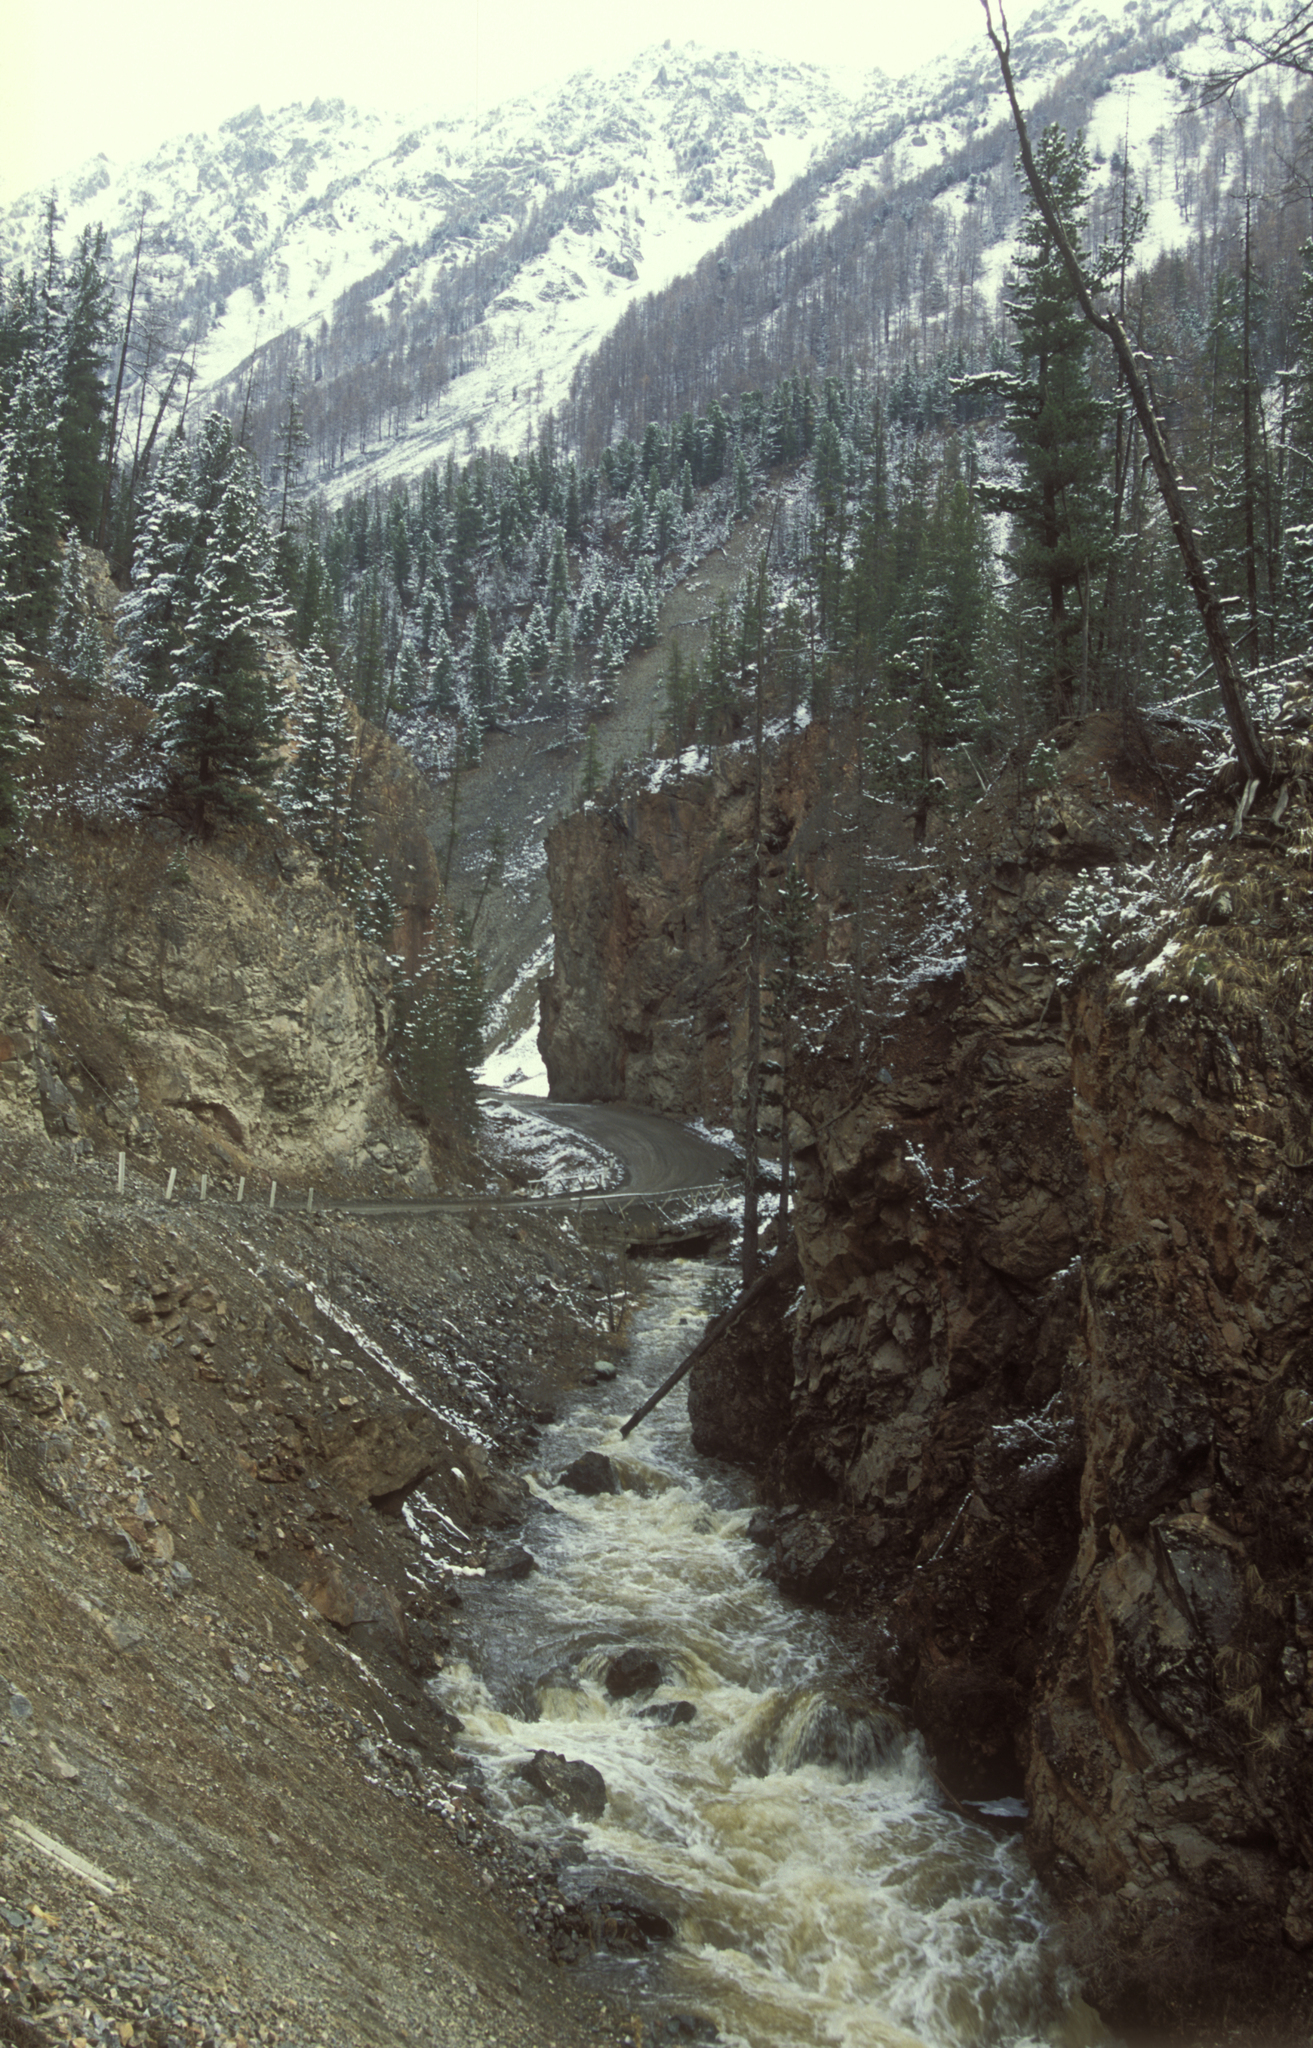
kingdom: Plantae
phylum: Tracheophyta
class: Pinopsida
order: Pinales
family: Pinaceae
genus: Picea
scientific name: Picea obovata
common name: Siberian spruce
